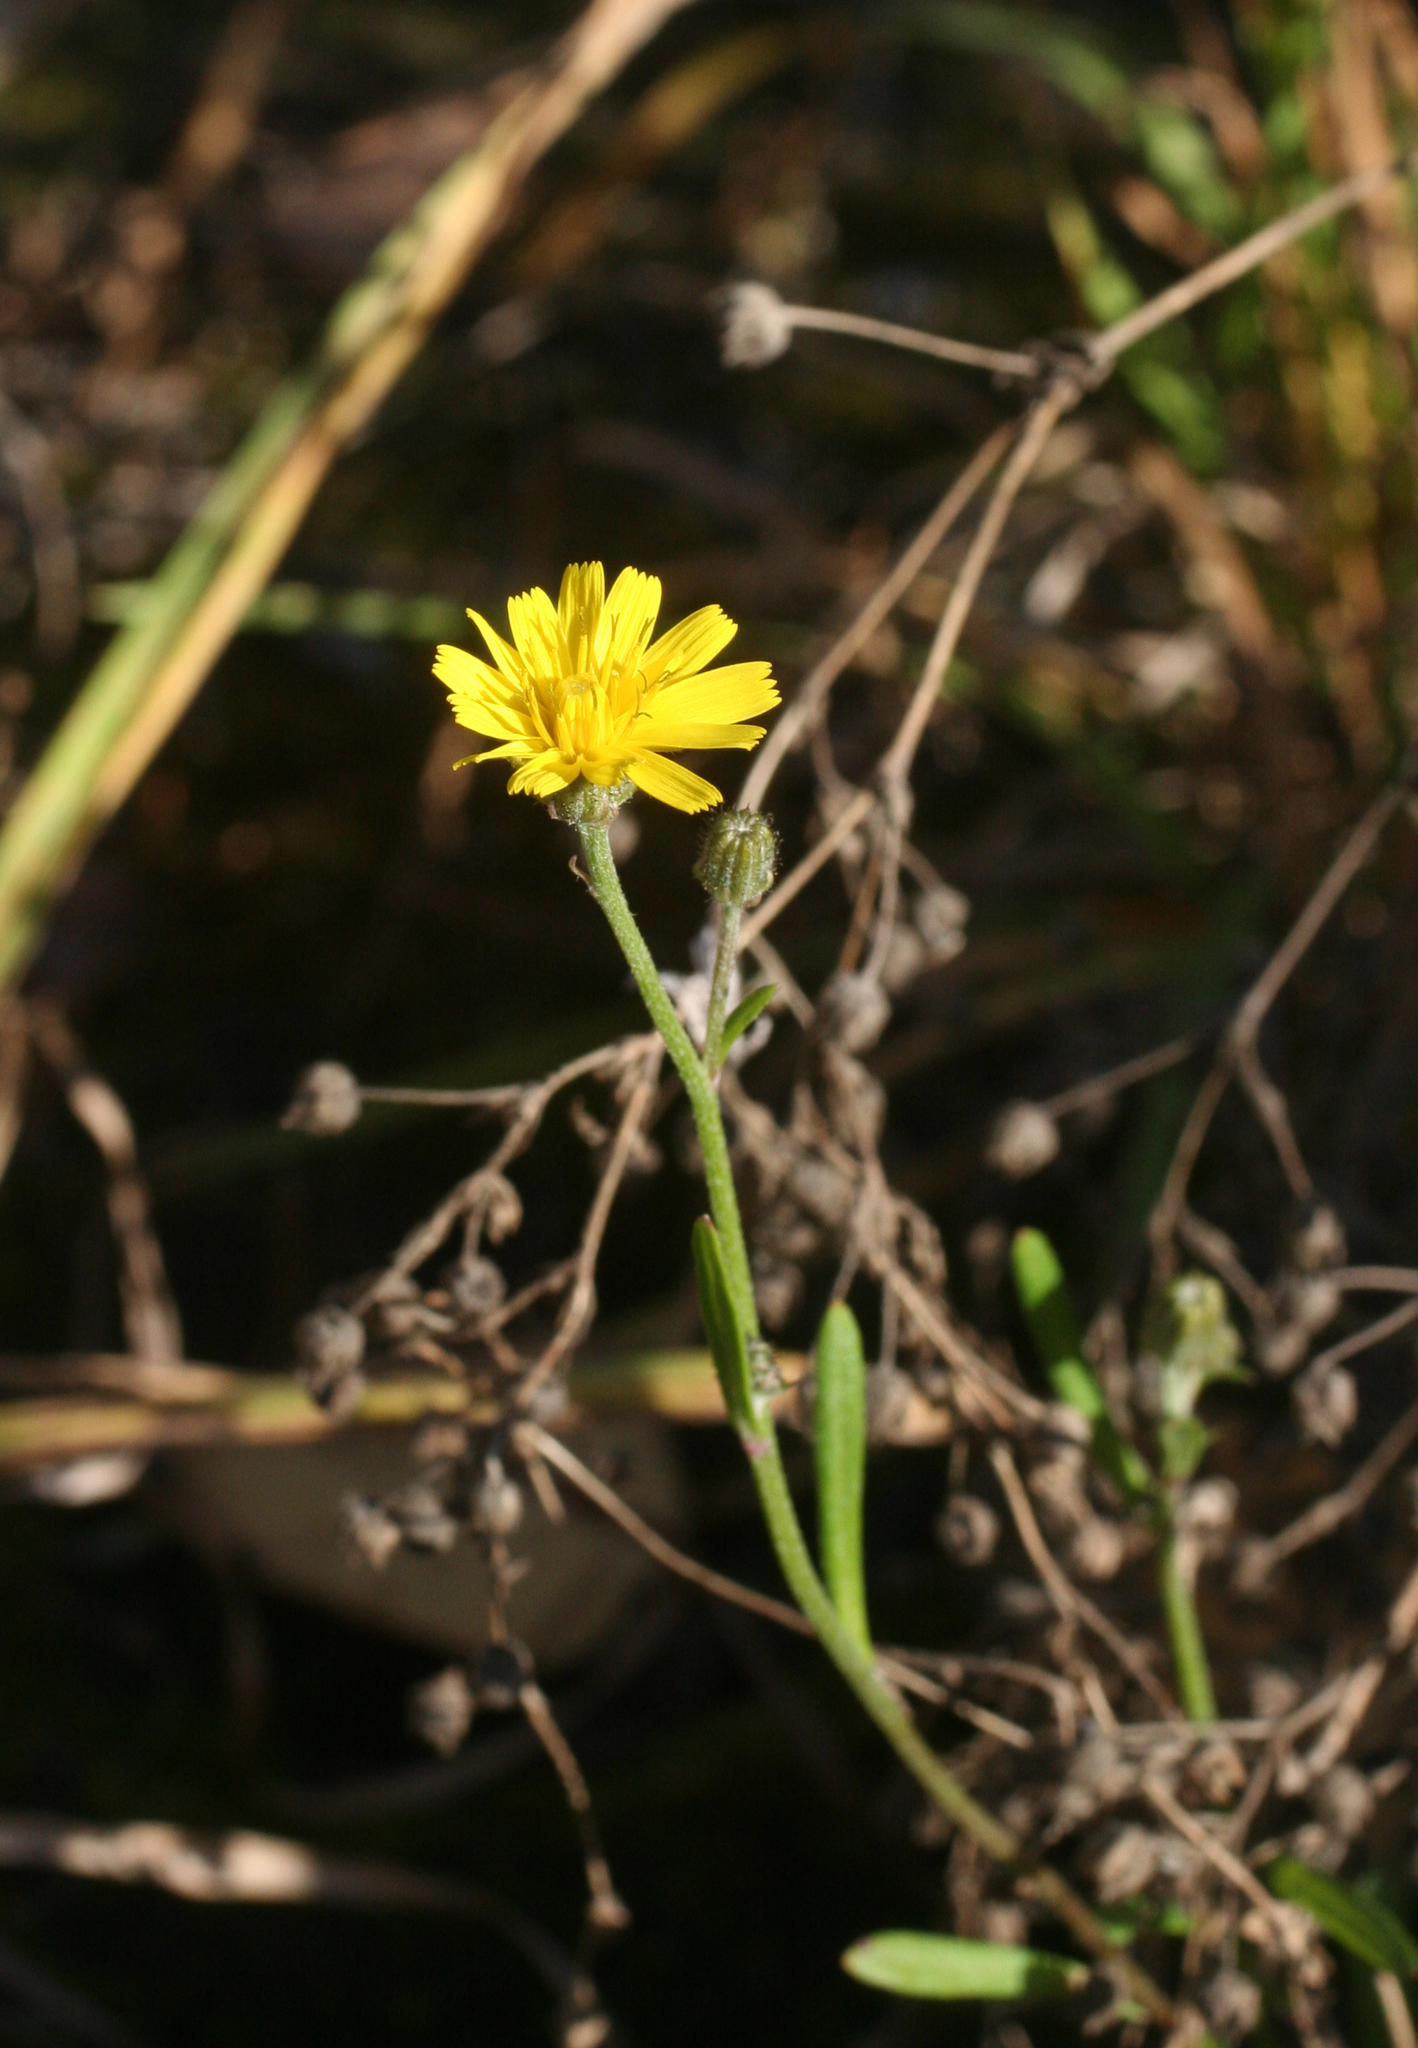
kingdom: Plantae
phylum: Tracheophyta
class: Magnoliopsida
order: Asterales
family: Asteraceae
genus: Crepis
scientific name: Crepis tectorum
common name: Narrow-leaved hawk's-beard
